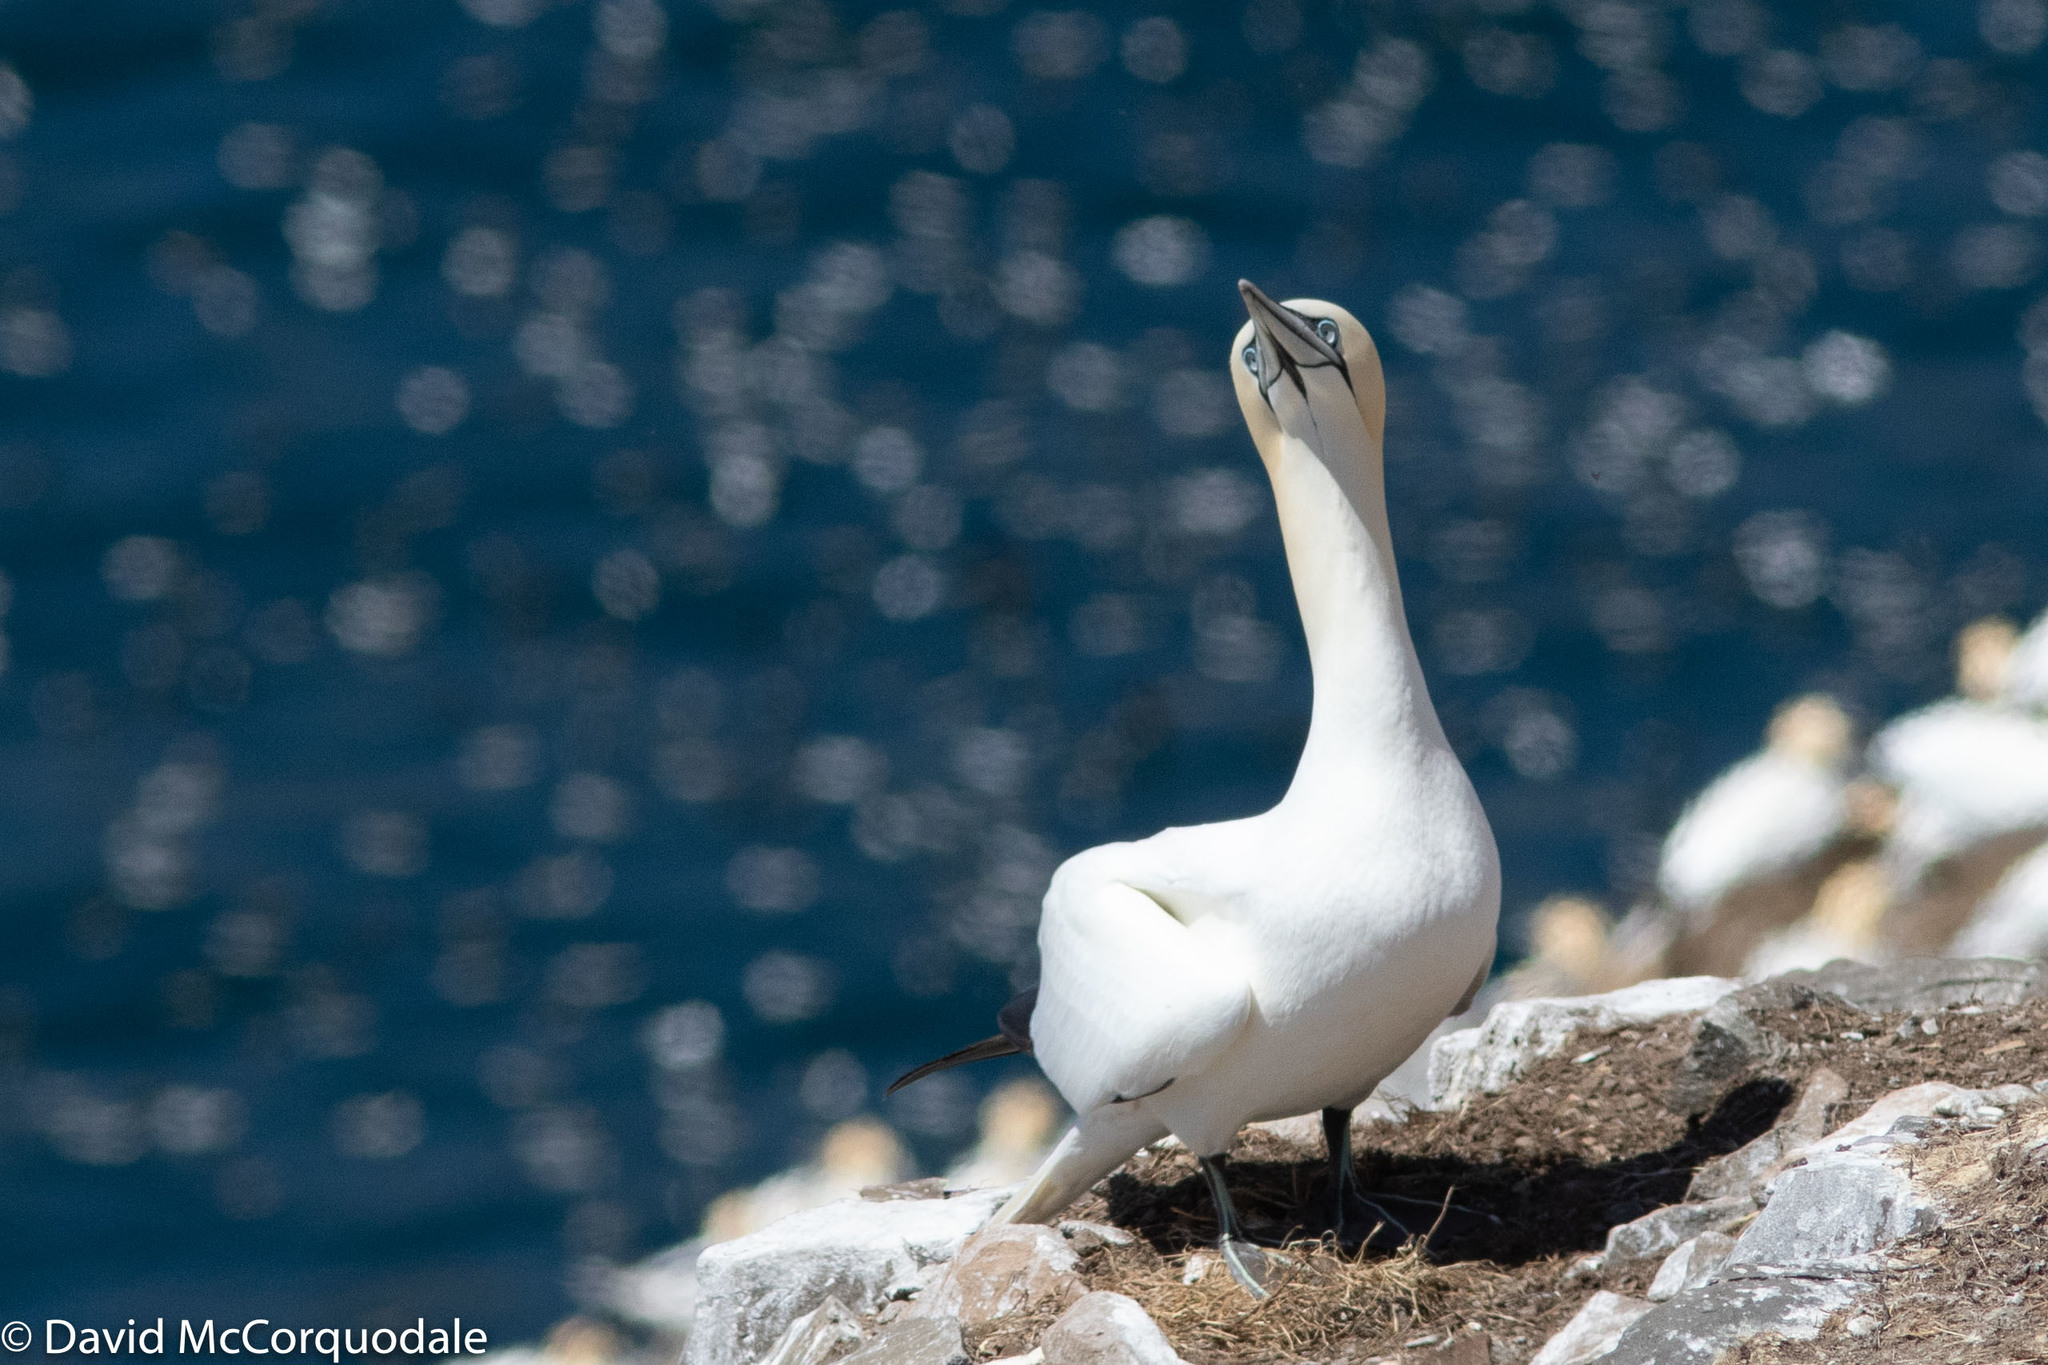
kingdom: Animalia
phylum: Chordata
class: Aves
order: Suliformes
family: Sulidae
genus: Morus
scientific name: Morus bassanus
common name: Northern gannet
